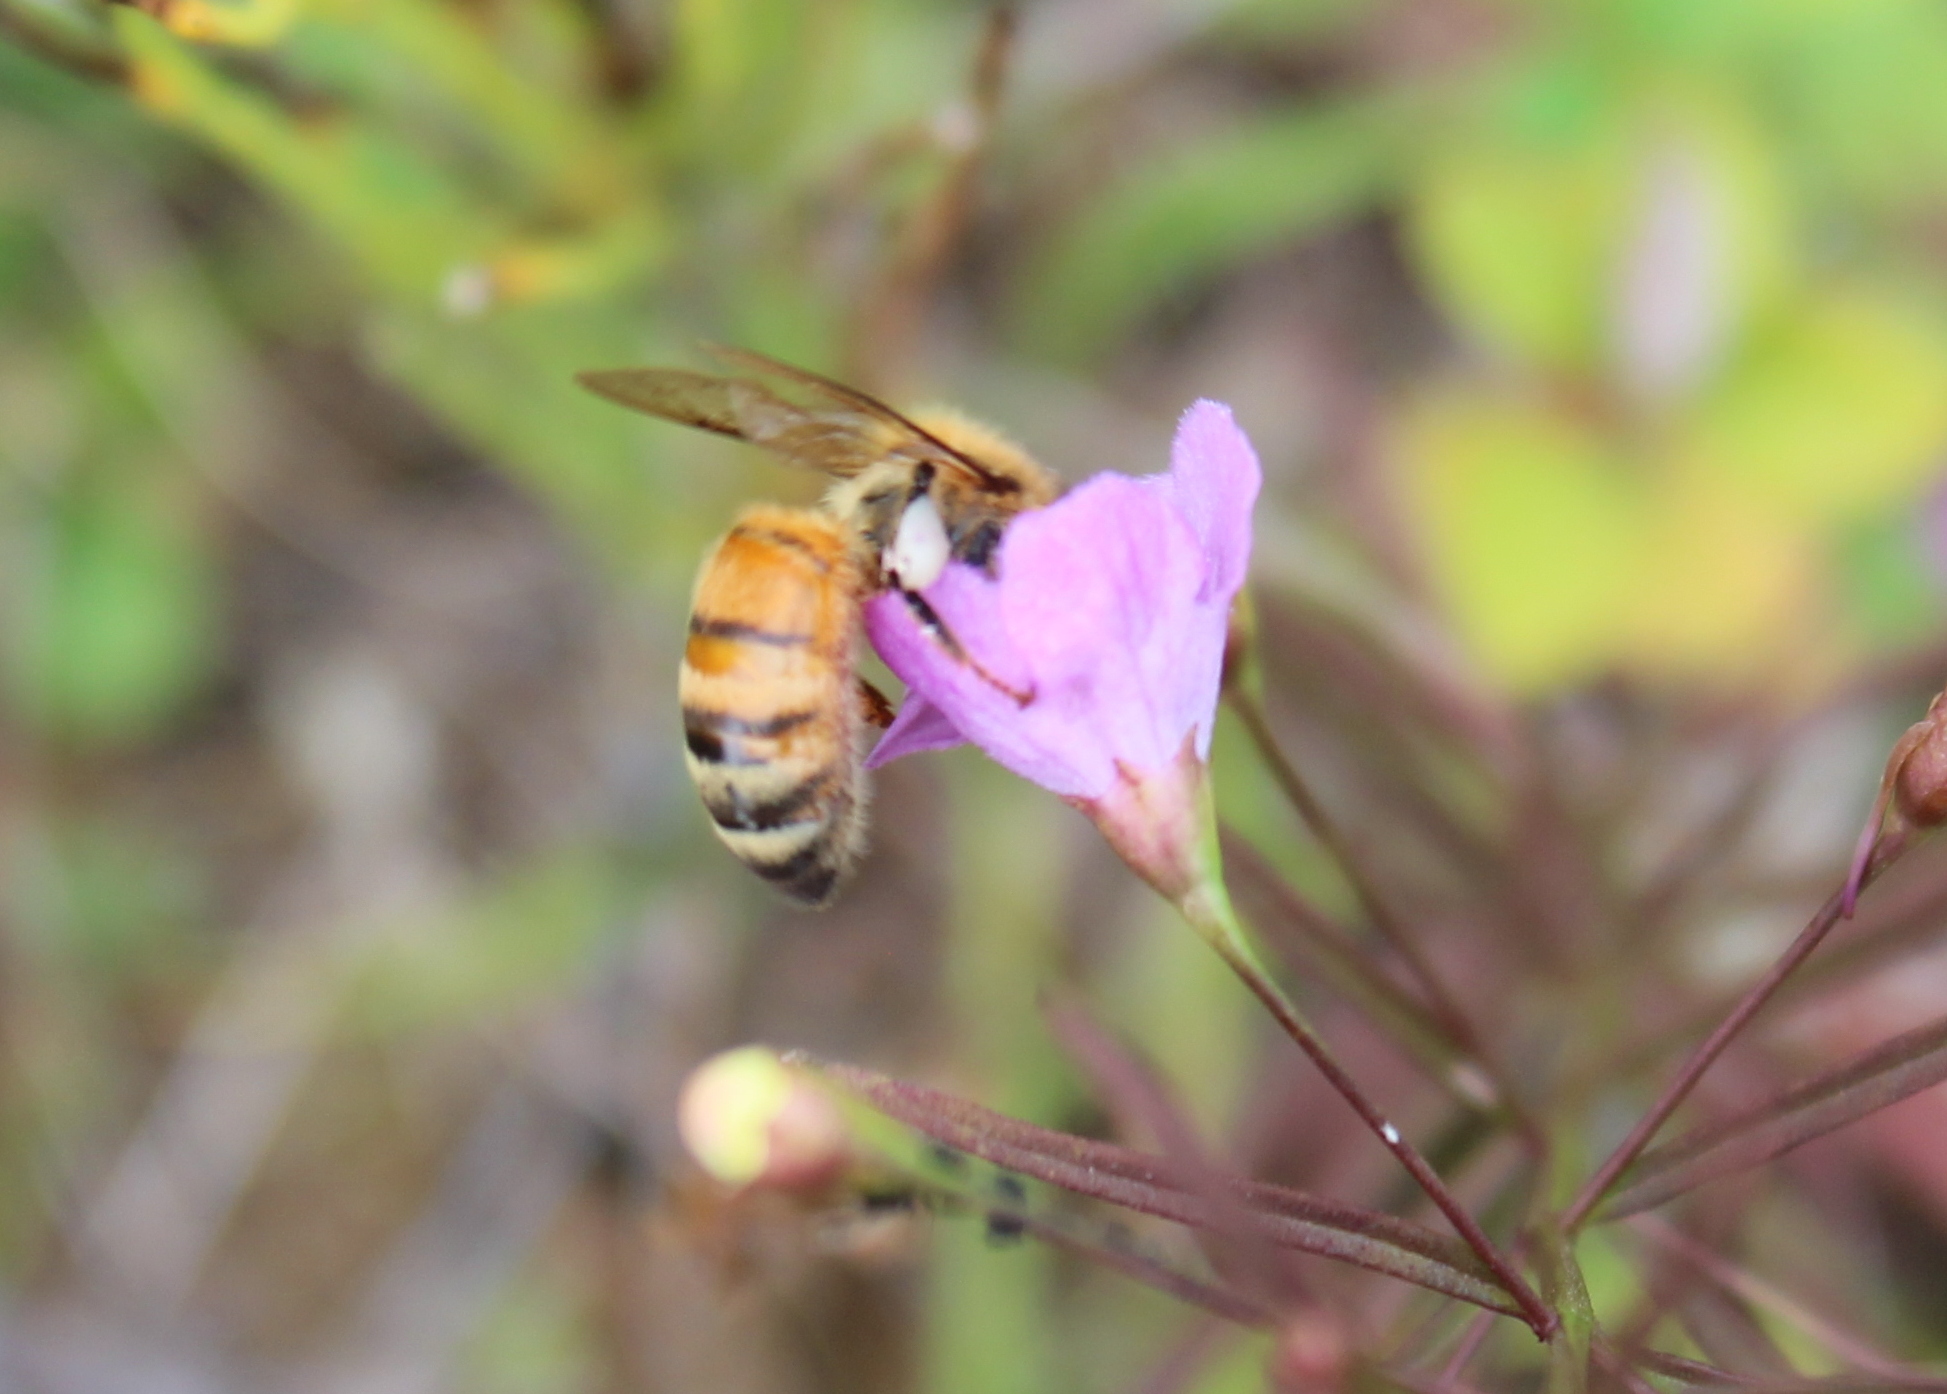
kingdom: Animalia
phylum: Arthropoda
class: Insecta
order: Hymenoptera
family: Apidae
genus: Apis
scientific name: Apis mellifera
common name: Honey bee
